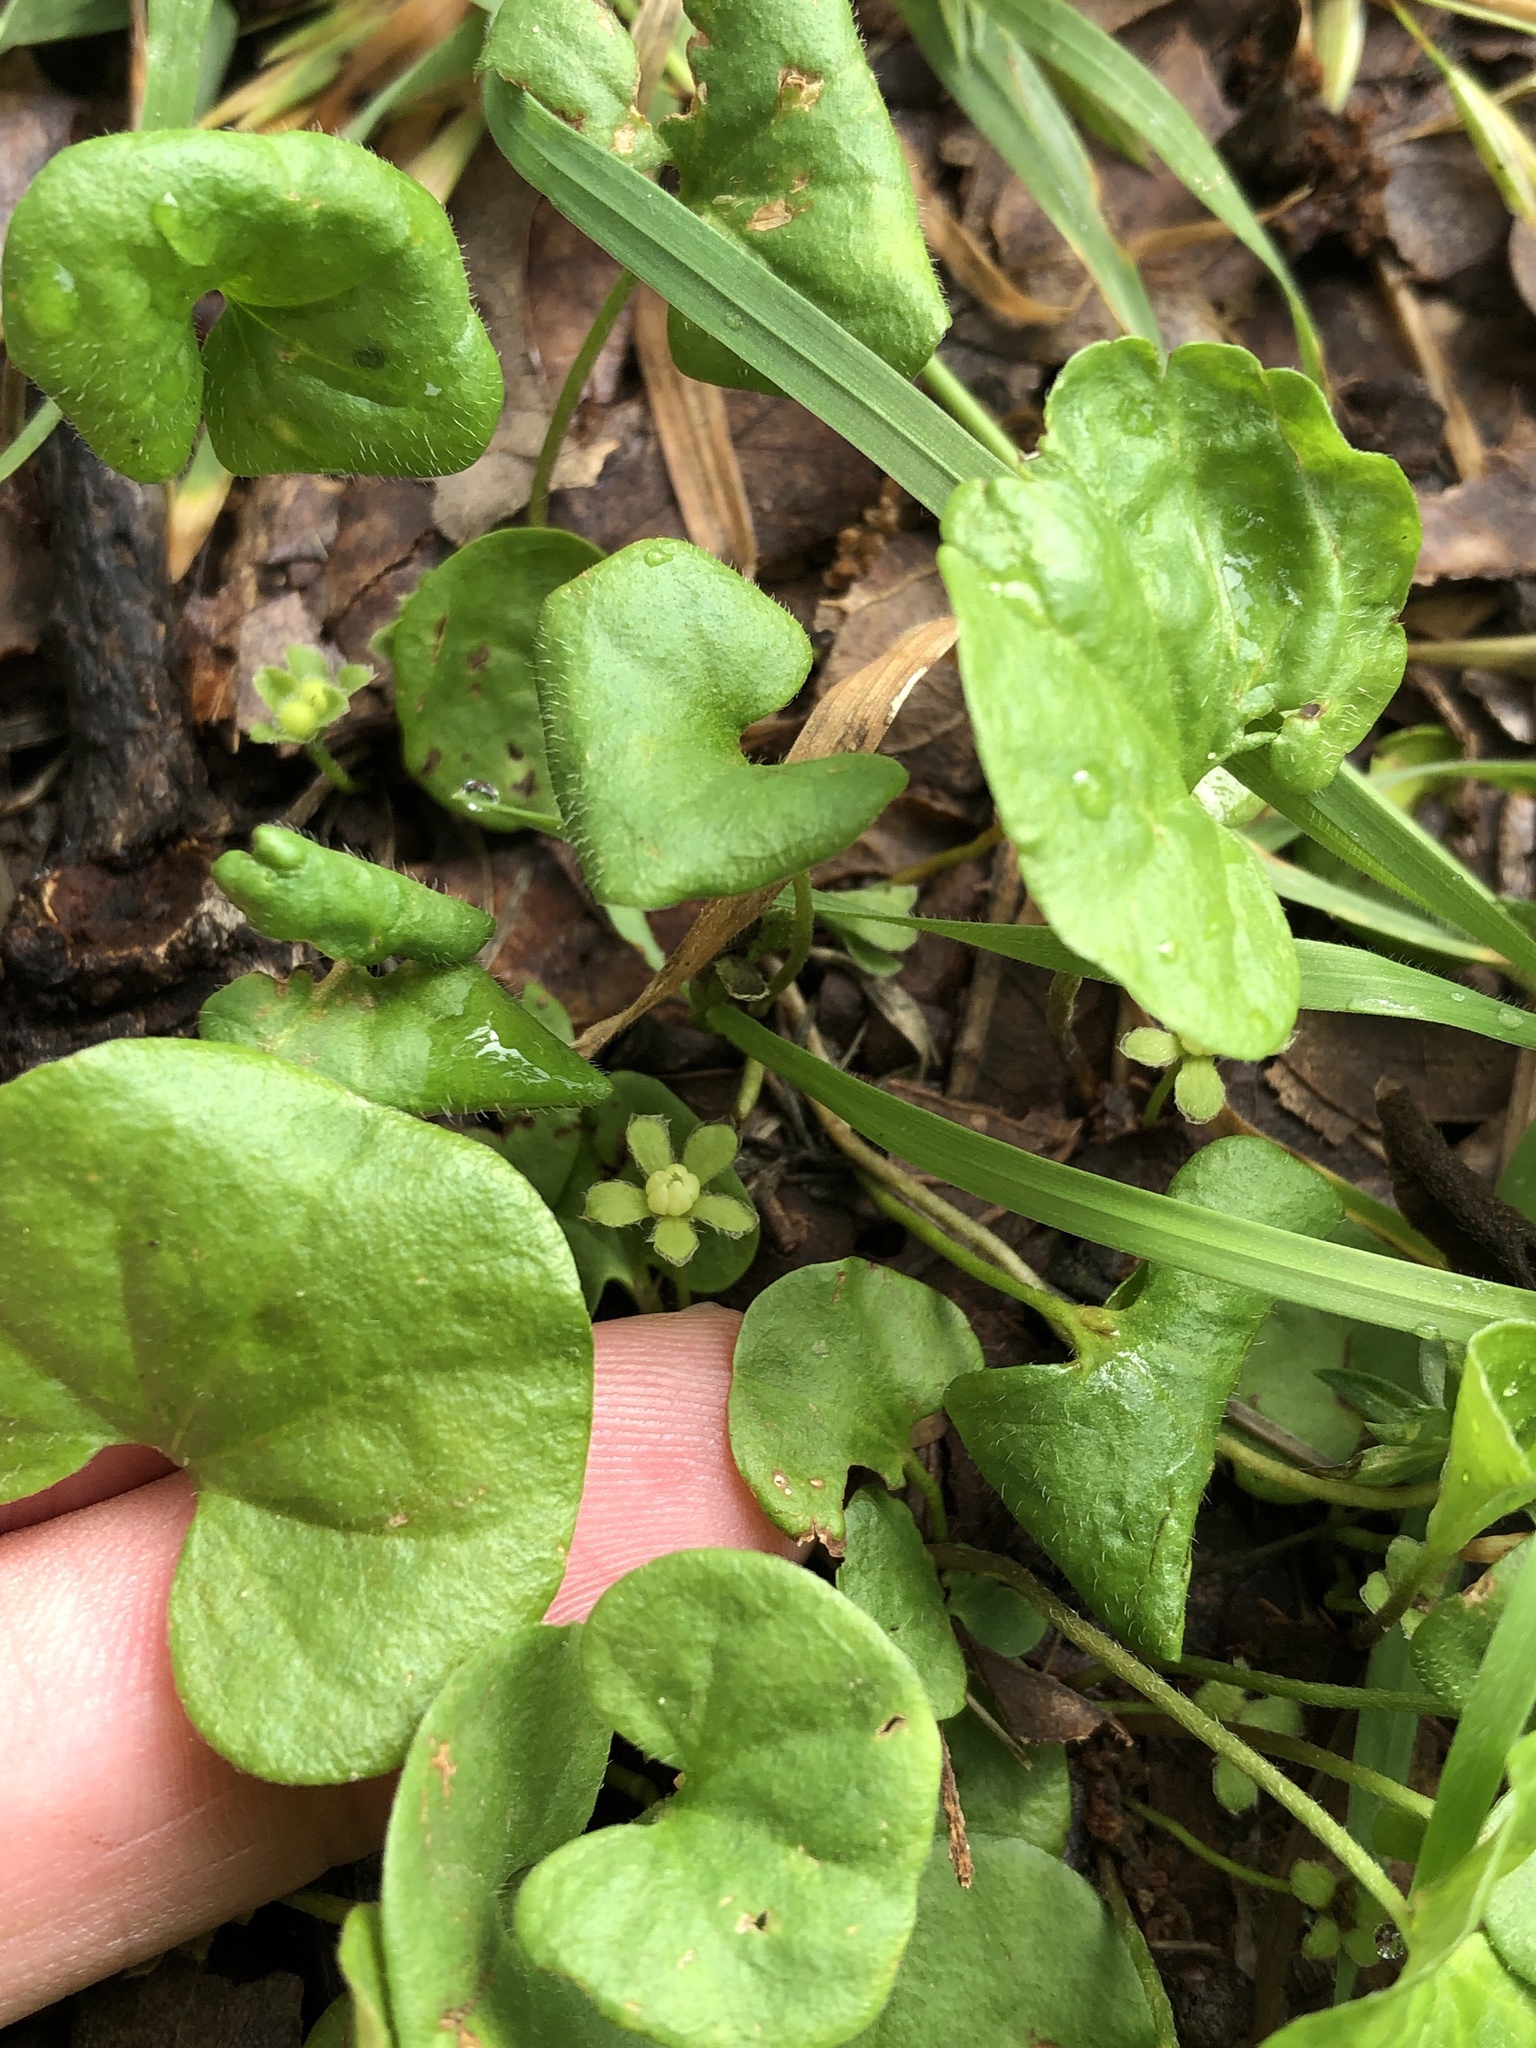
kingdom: Plantae
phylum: Tracheophyta
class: Magnoliopsida
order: Solanales
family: Convolvulaceae
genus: Dichondra
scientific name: Dichondra carolinensis
